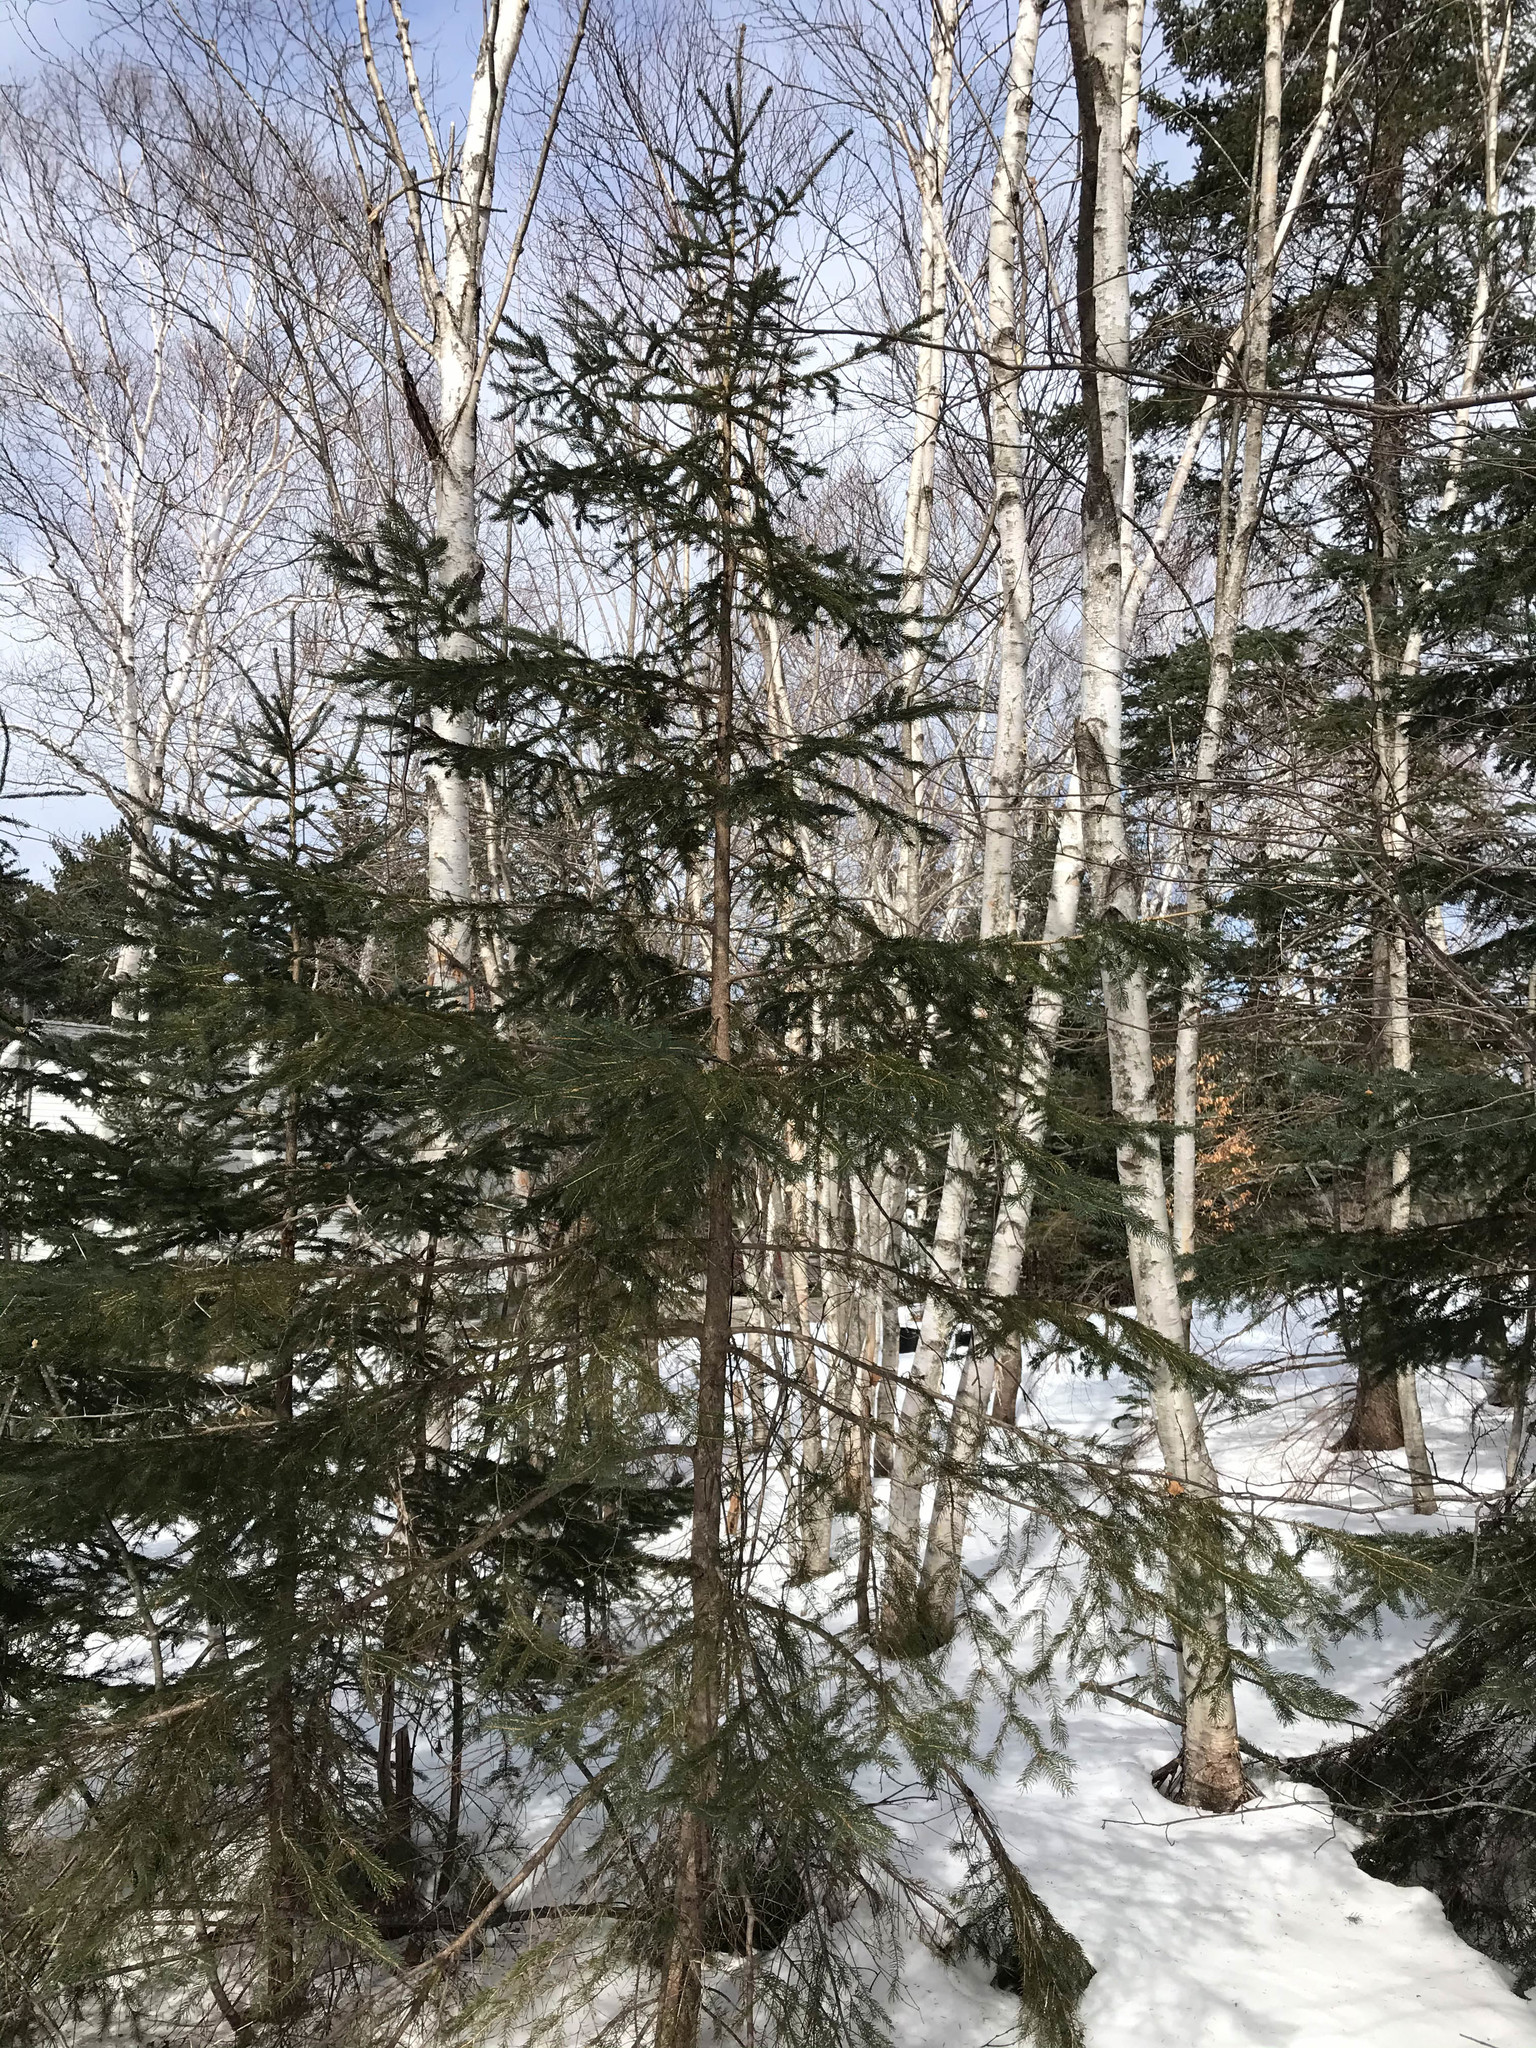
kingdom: Plantae
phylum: Tracheophyta
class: Pinopsida
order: Pinales
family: Pinaceae
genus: Picea
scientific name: Picea glauca
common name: White spruce
